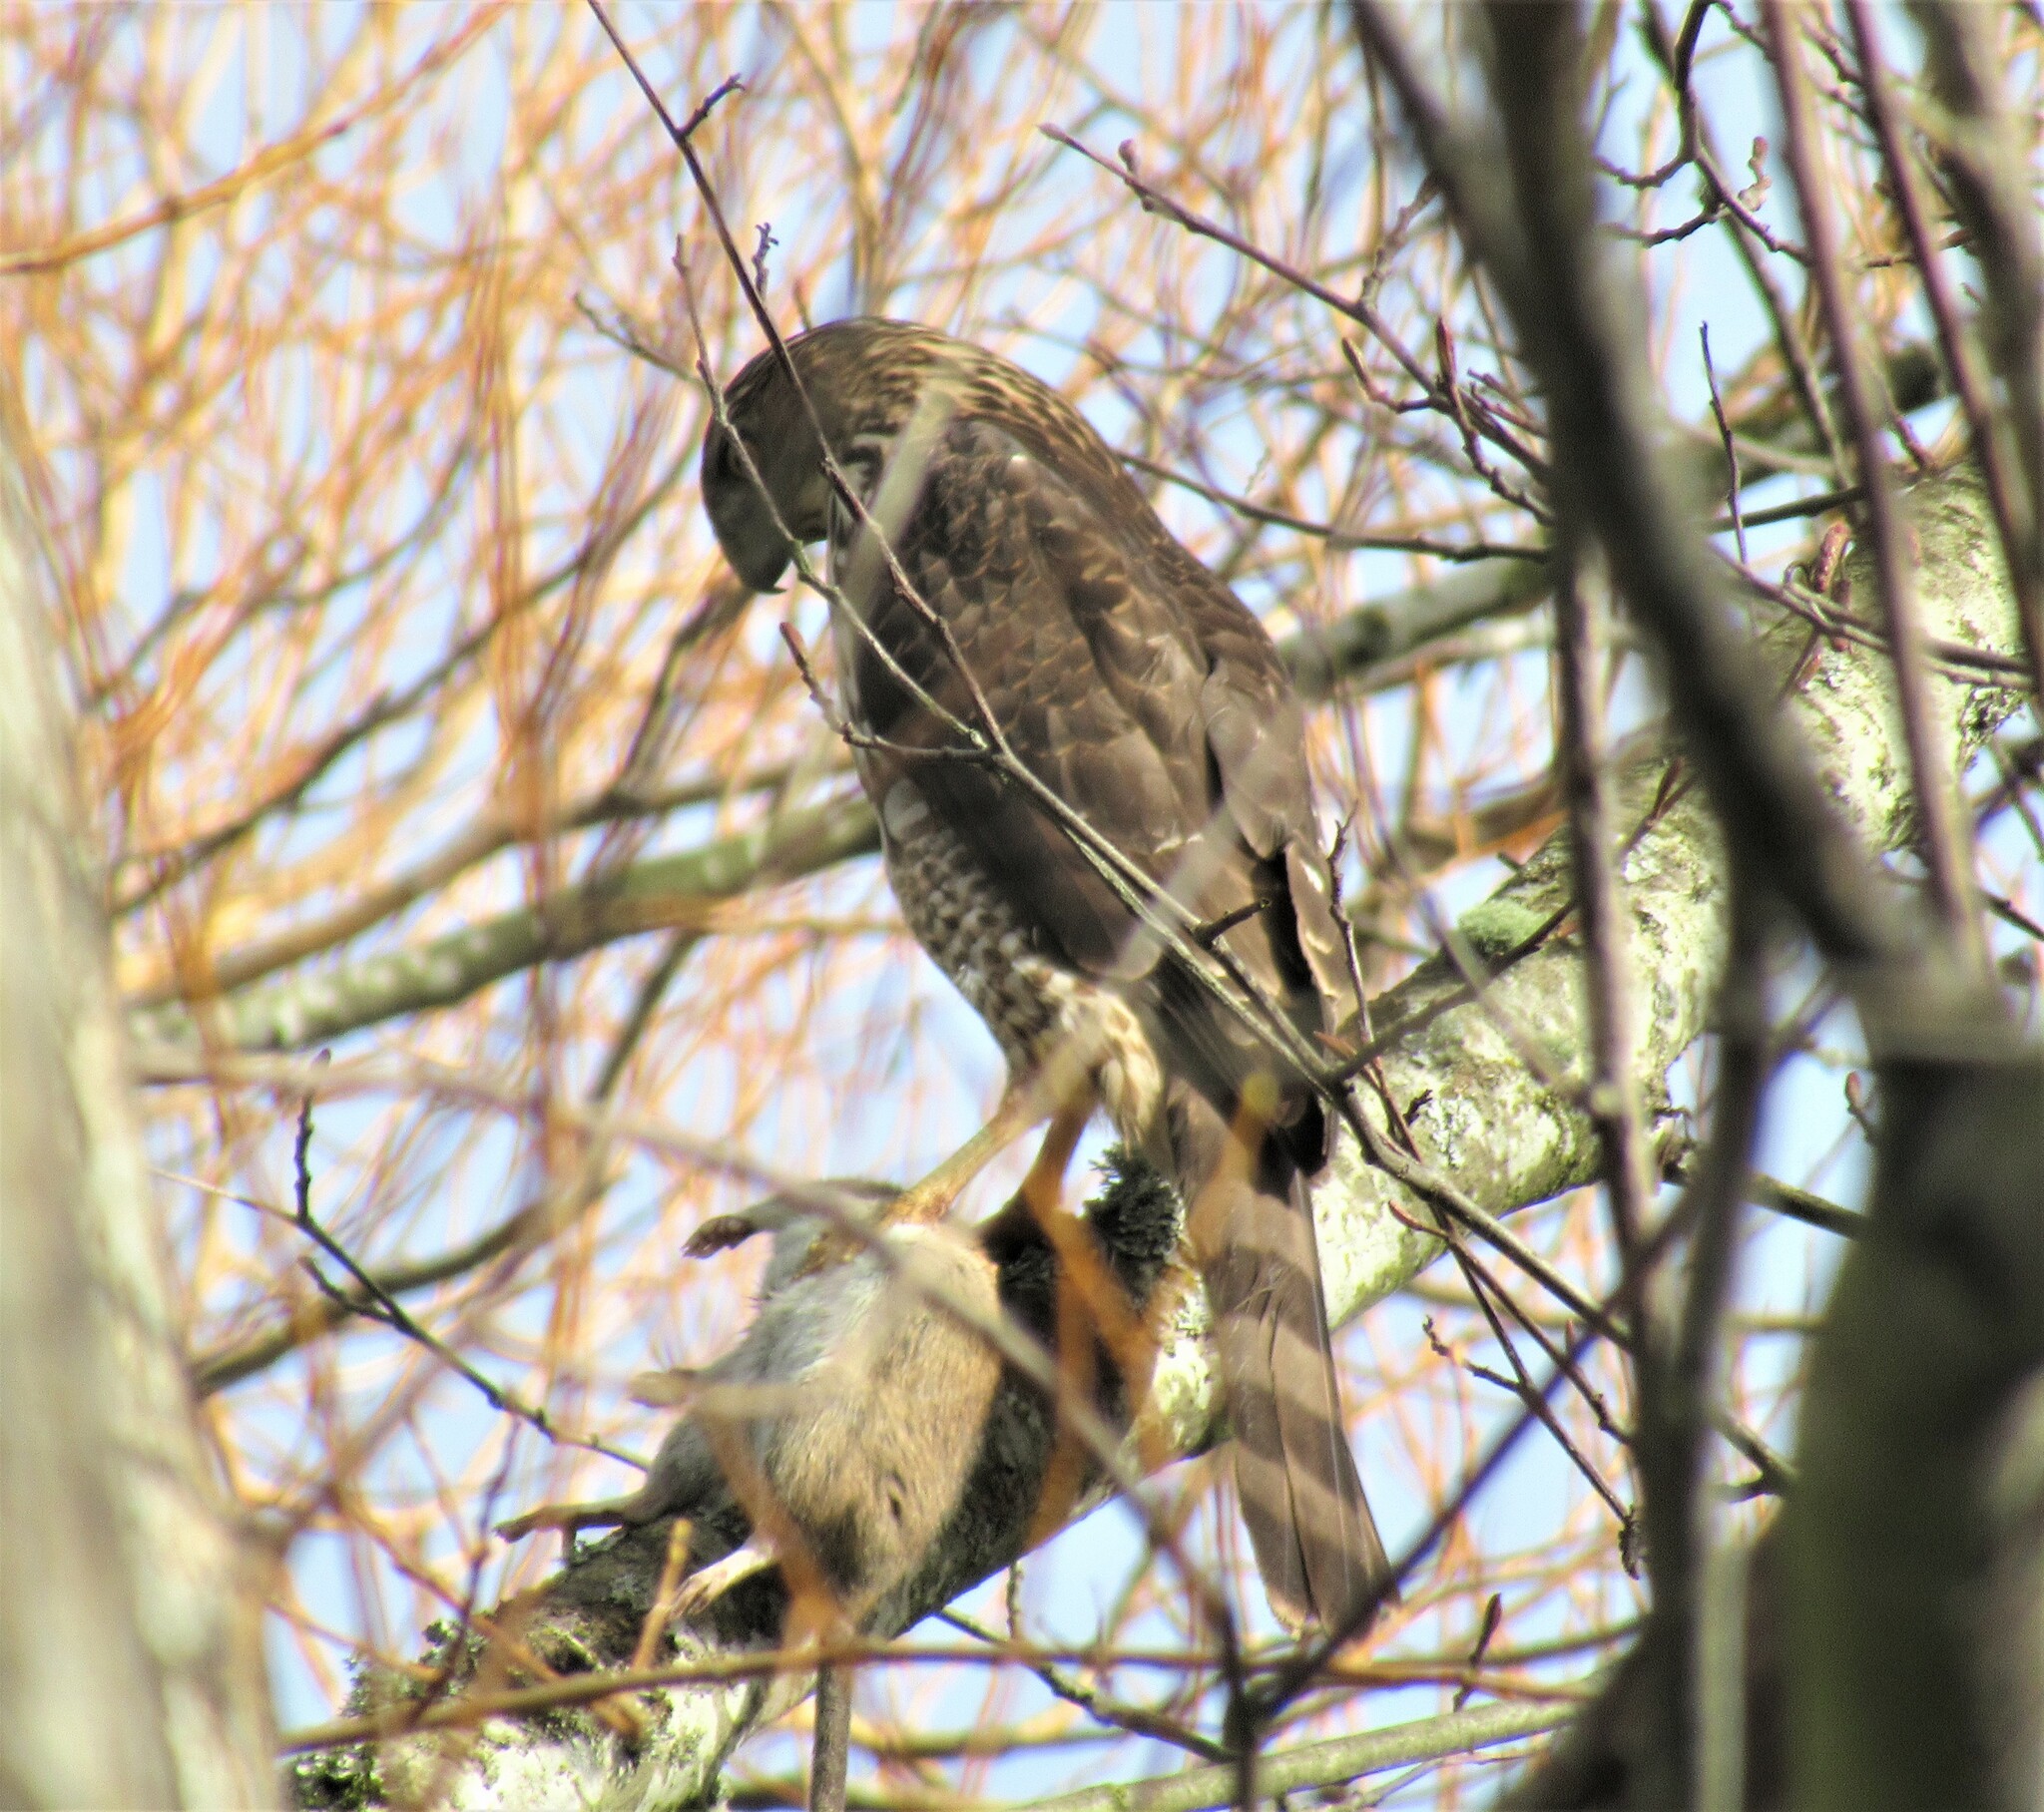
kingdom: Animalia
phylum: Chordata
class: Aves
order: Accipitriformes
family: Accipitridae
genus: Accipiter
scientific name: Accipiter cooperii
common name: Cooper's hawk
